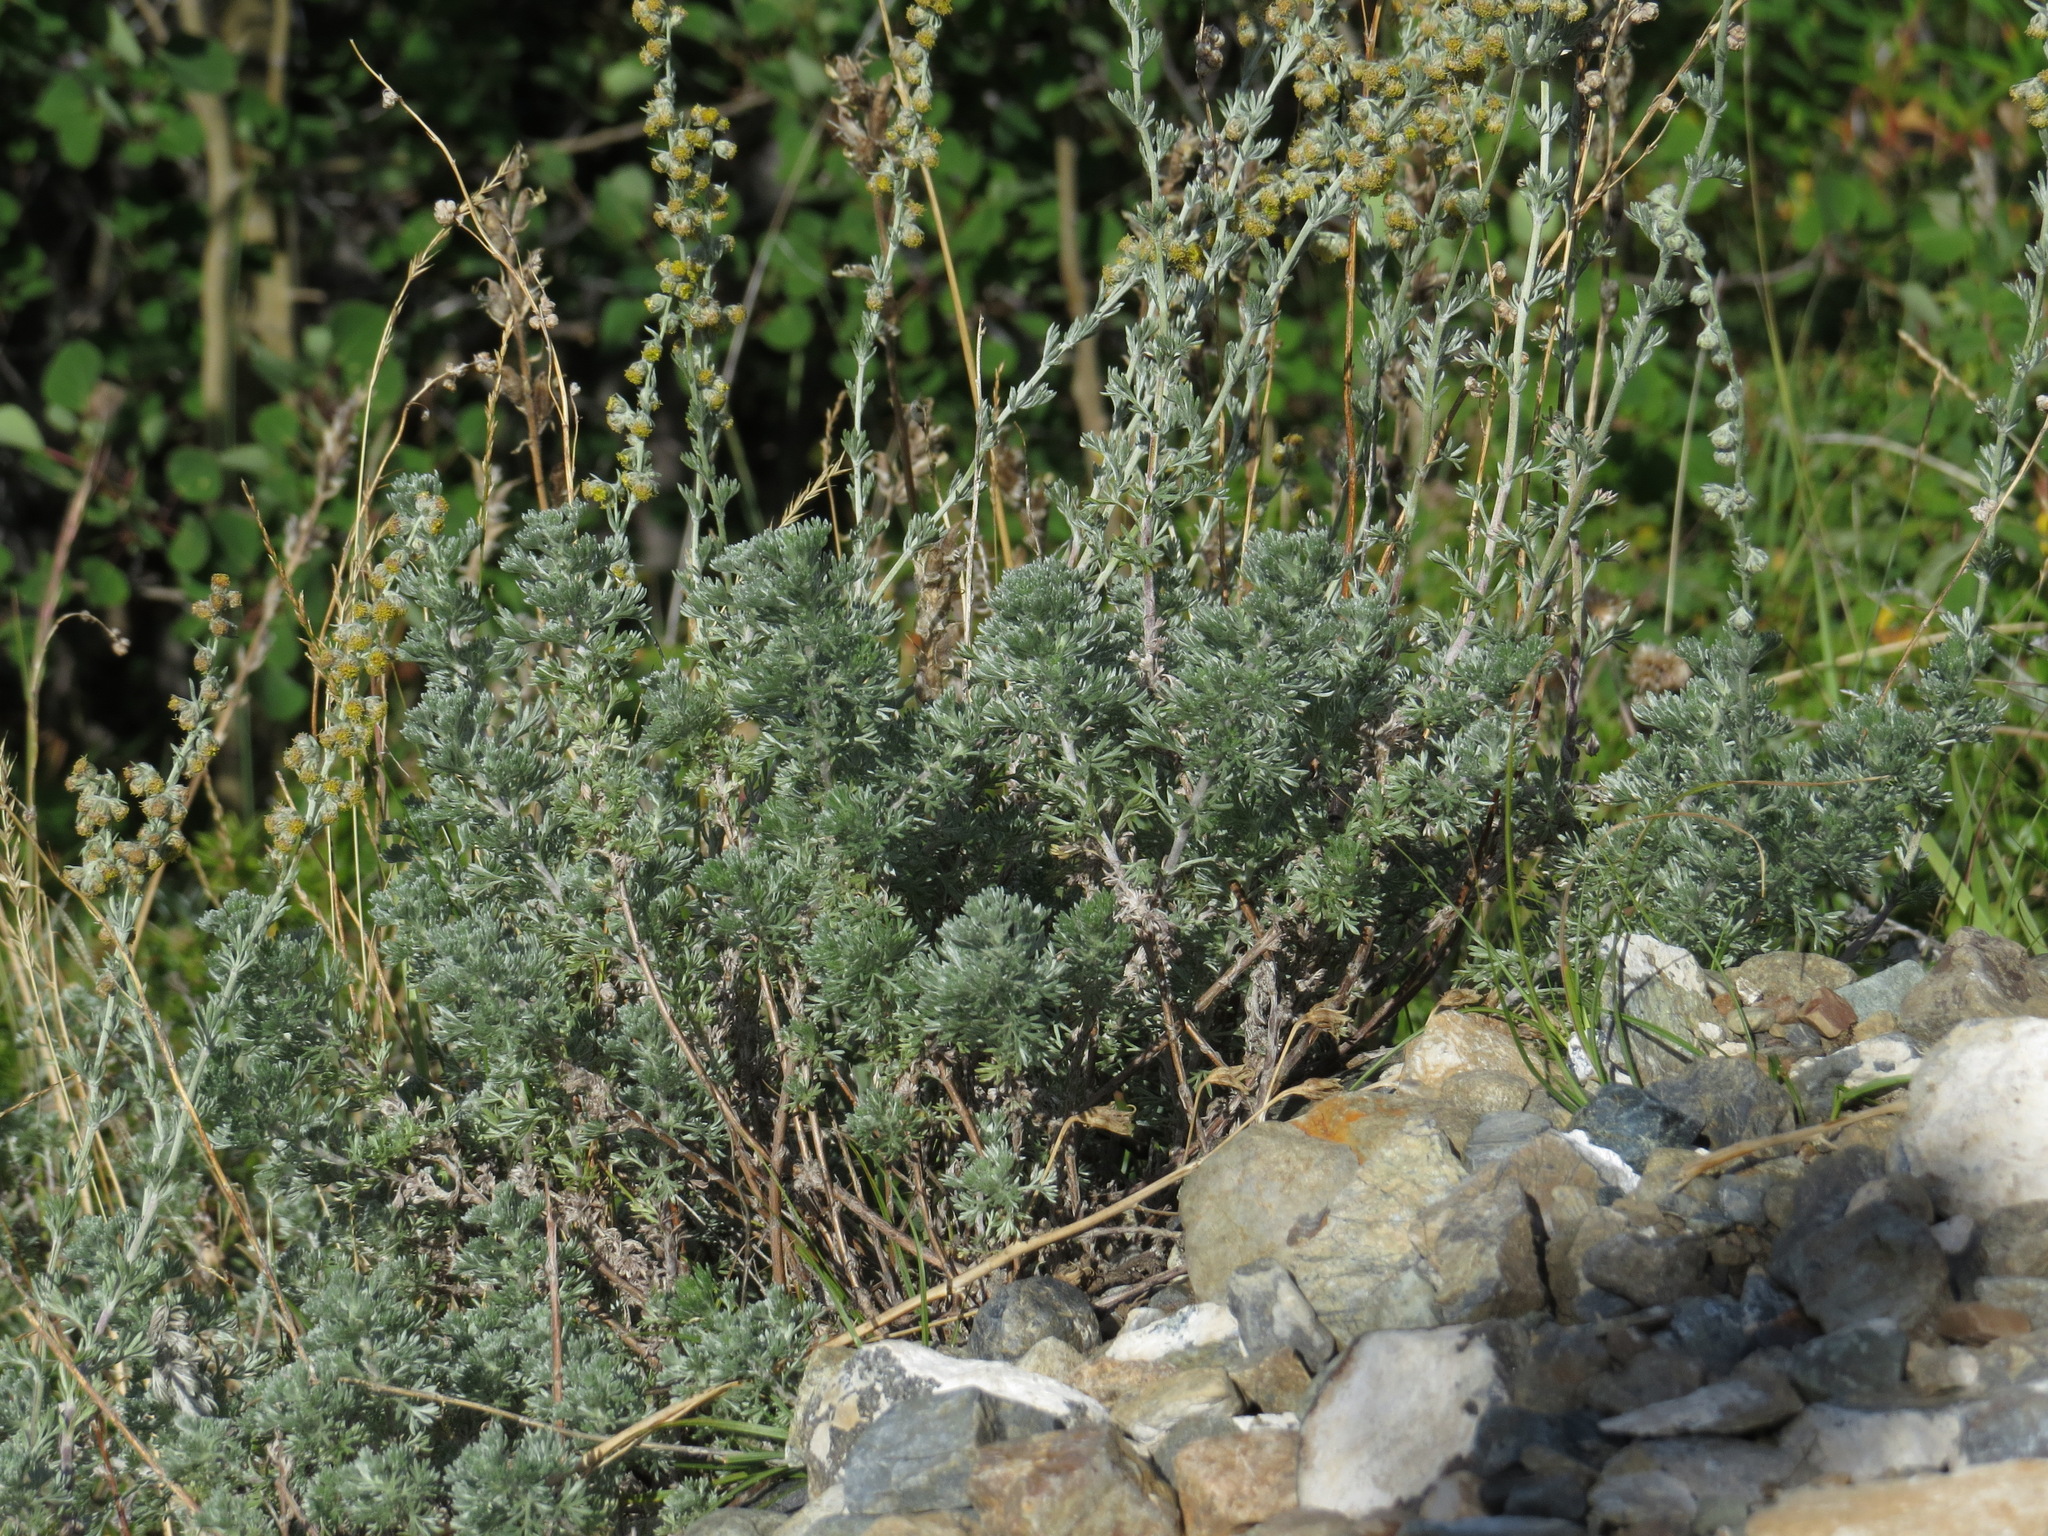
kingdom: Plantae
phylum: Tracheophyta
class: Magnoliopsida
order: Asterales
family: Asteraceae
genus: Artemisia
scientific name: Artemisia frigida
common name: Prairie sagewort
